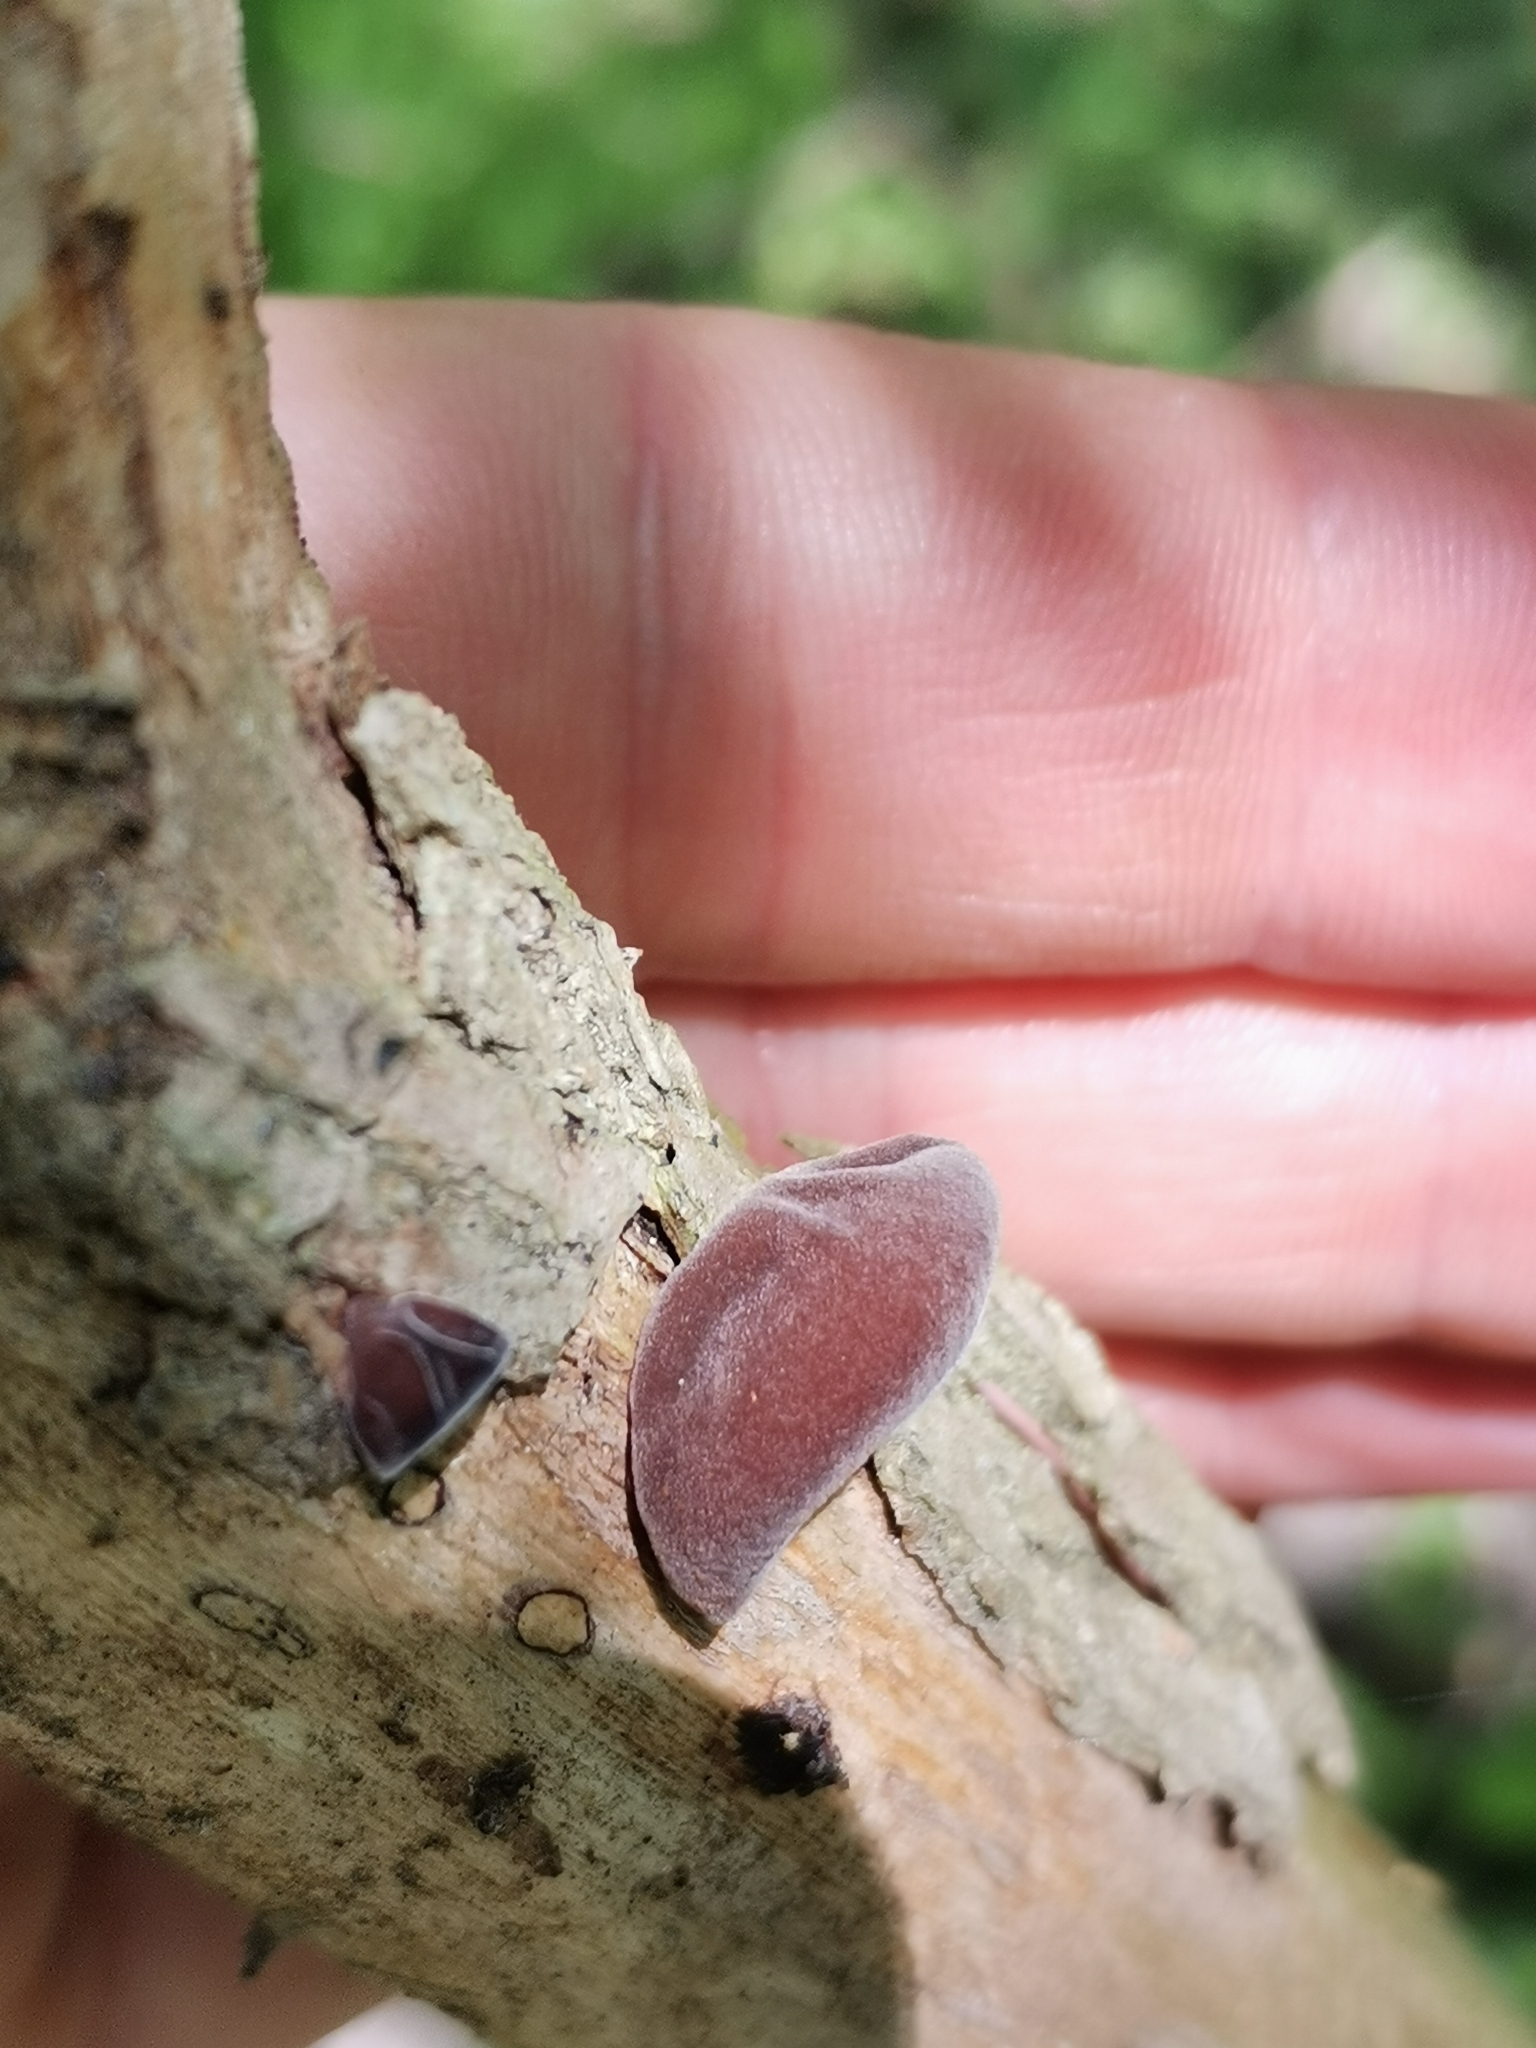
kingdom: Fungi
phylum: Basidiomycota
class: Agaricomycetes
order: Auriculariales
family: Auriculariaceae
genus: Auricularia
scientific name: Auricularia auricula-judae
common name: Jelly ear
